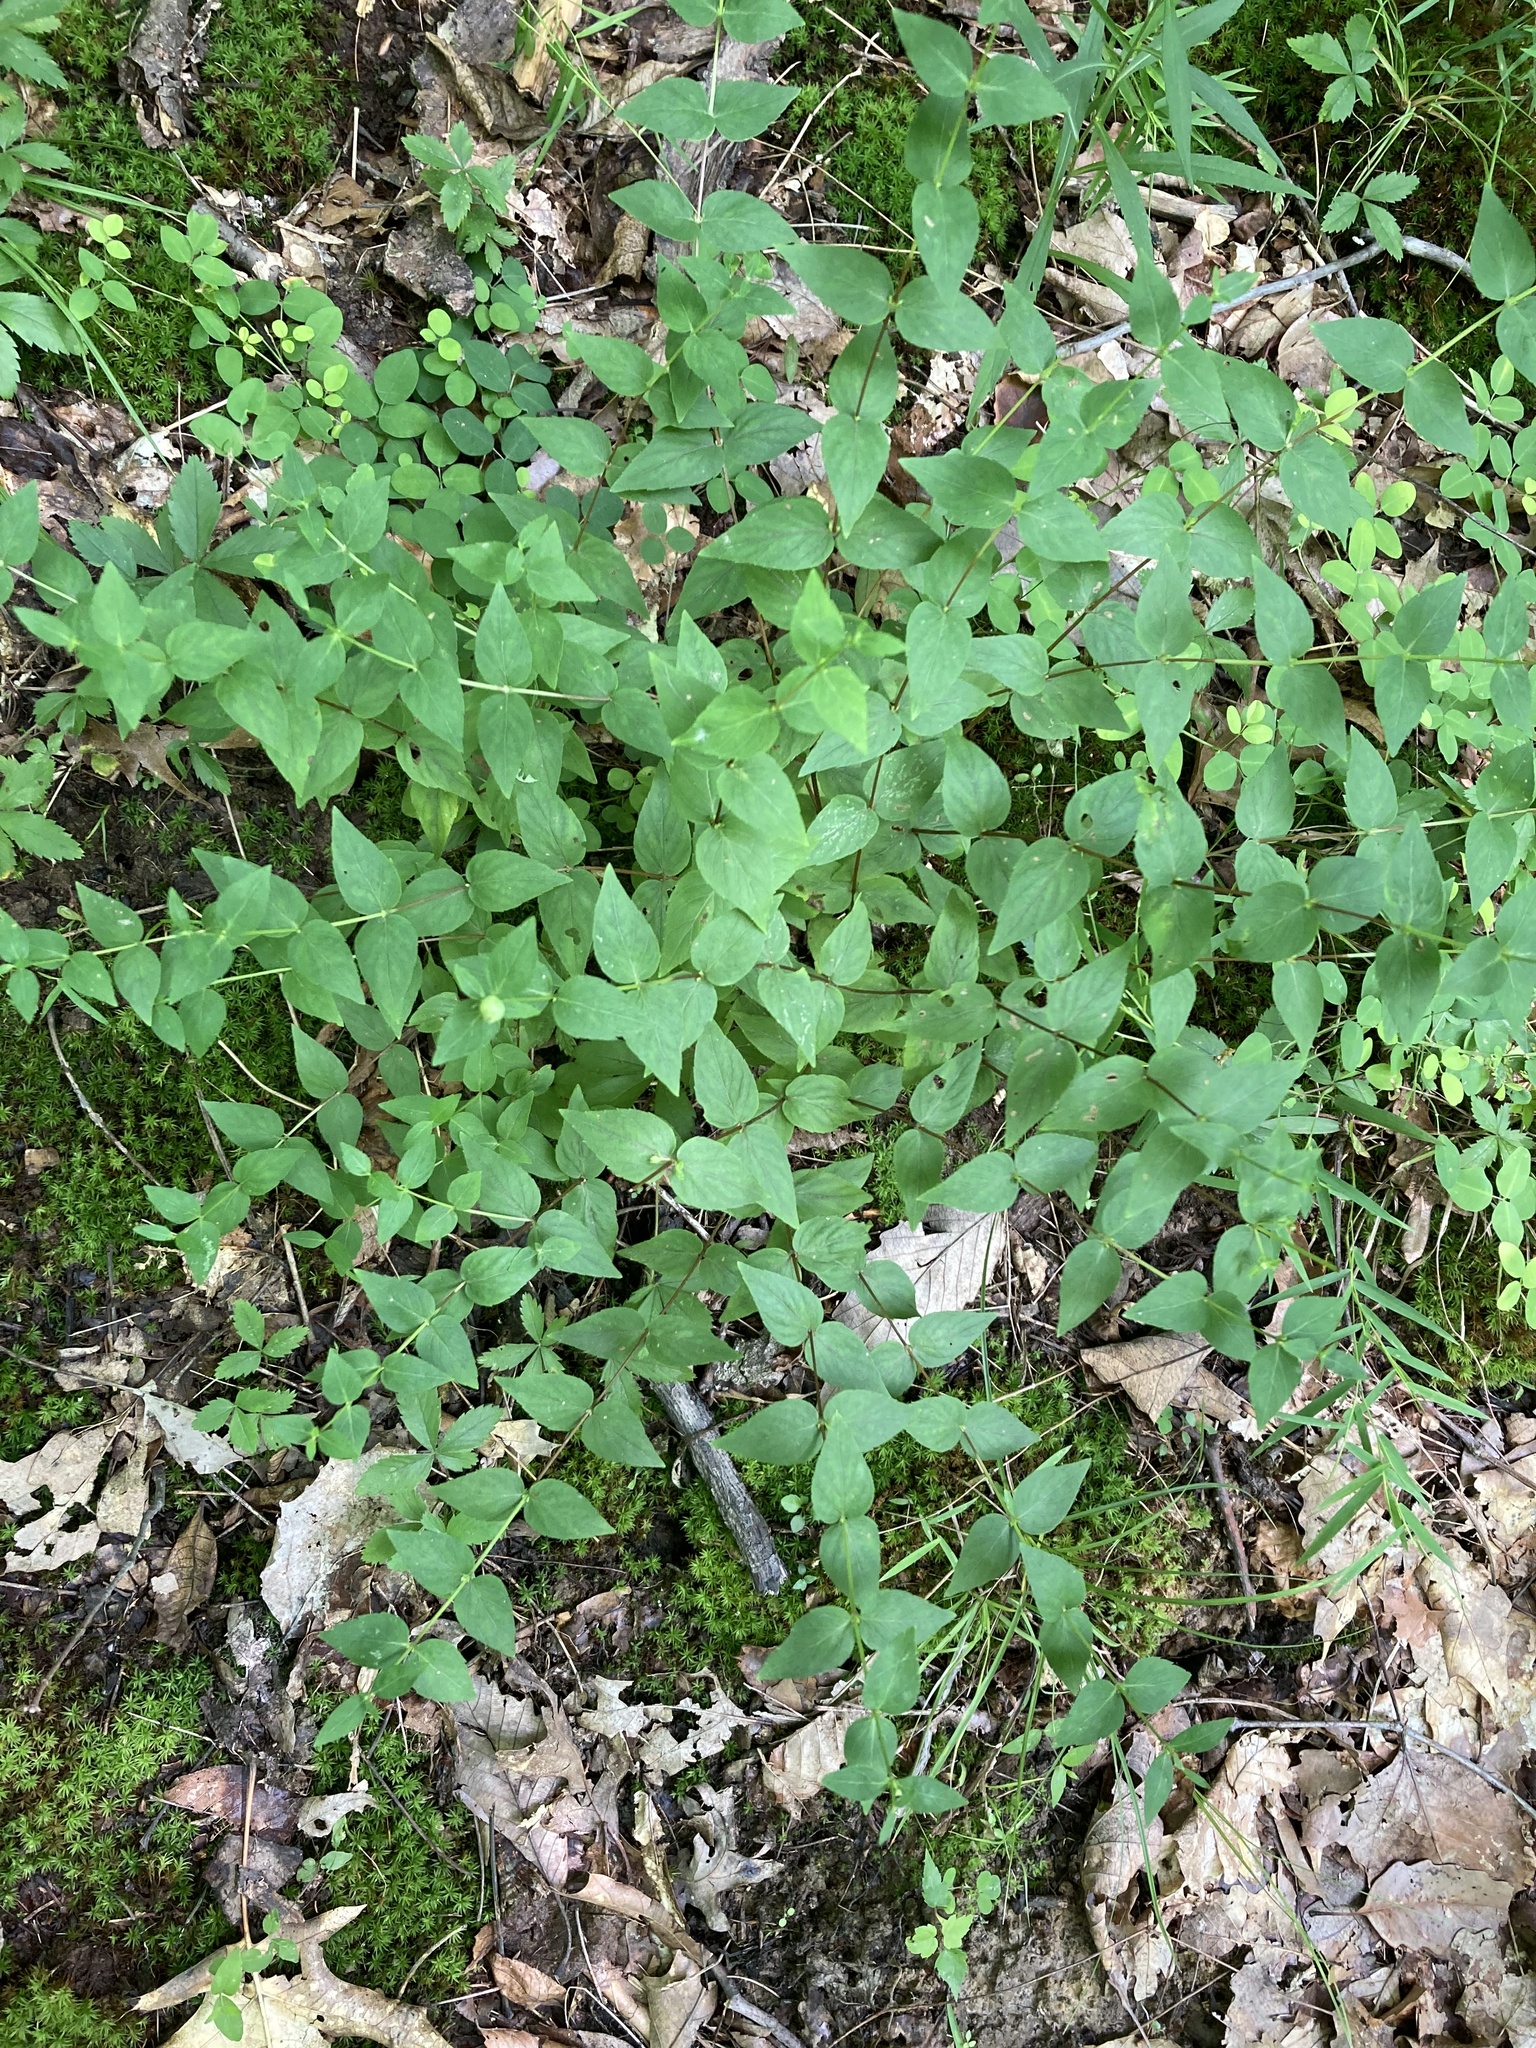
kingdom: Plantae
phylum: Tracheophyta
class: Magnoliopsida
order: Lamiales
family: Lamiaceae
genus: Cunila
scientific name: Cunila origanoides
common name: American dittany
